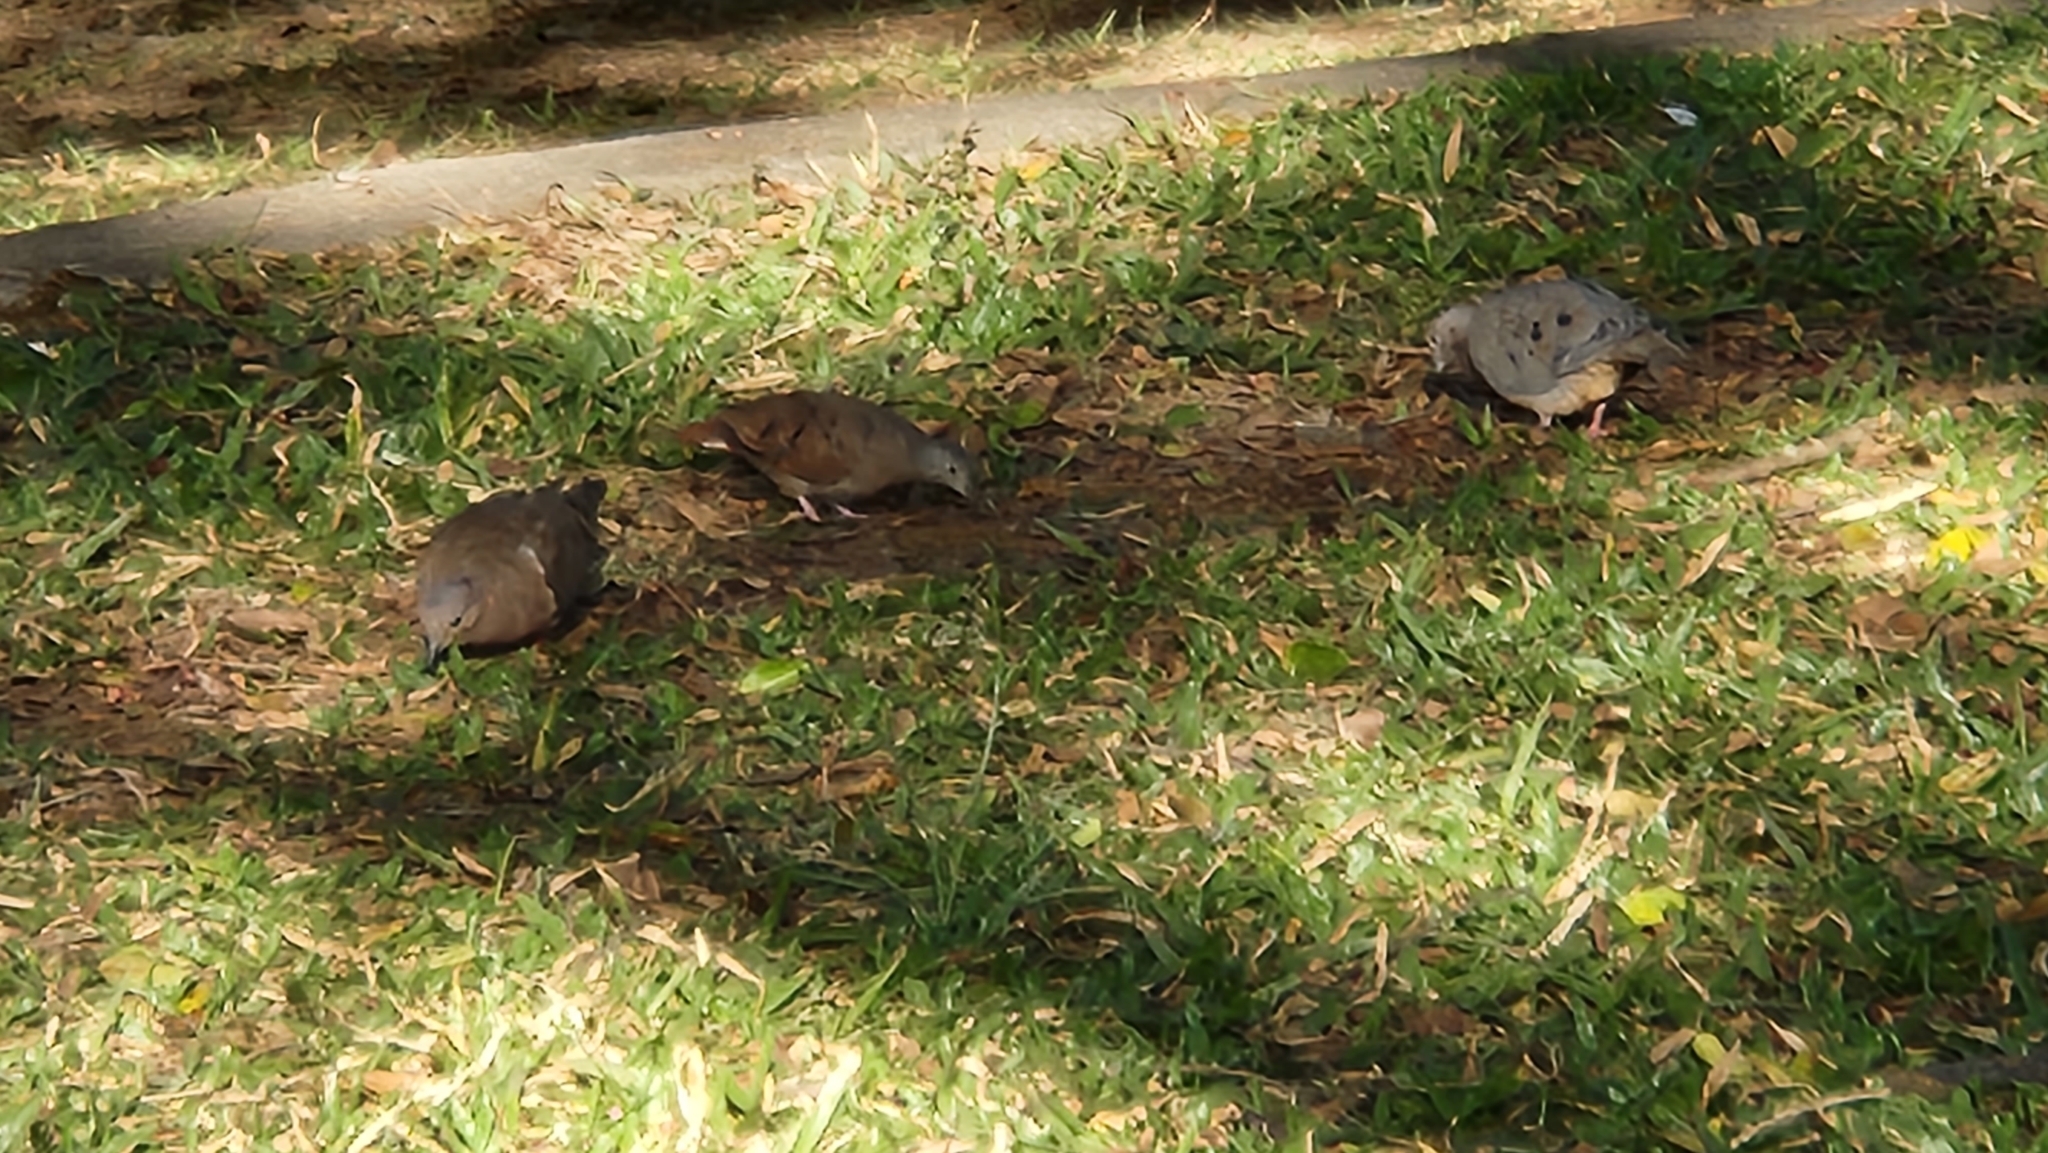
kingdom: Animalia
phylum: Chordata
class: Aves
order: Columbiformes
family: Columbidae
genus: Columbina
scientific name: Columbina talpacoti
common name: Ruddy ground dove
